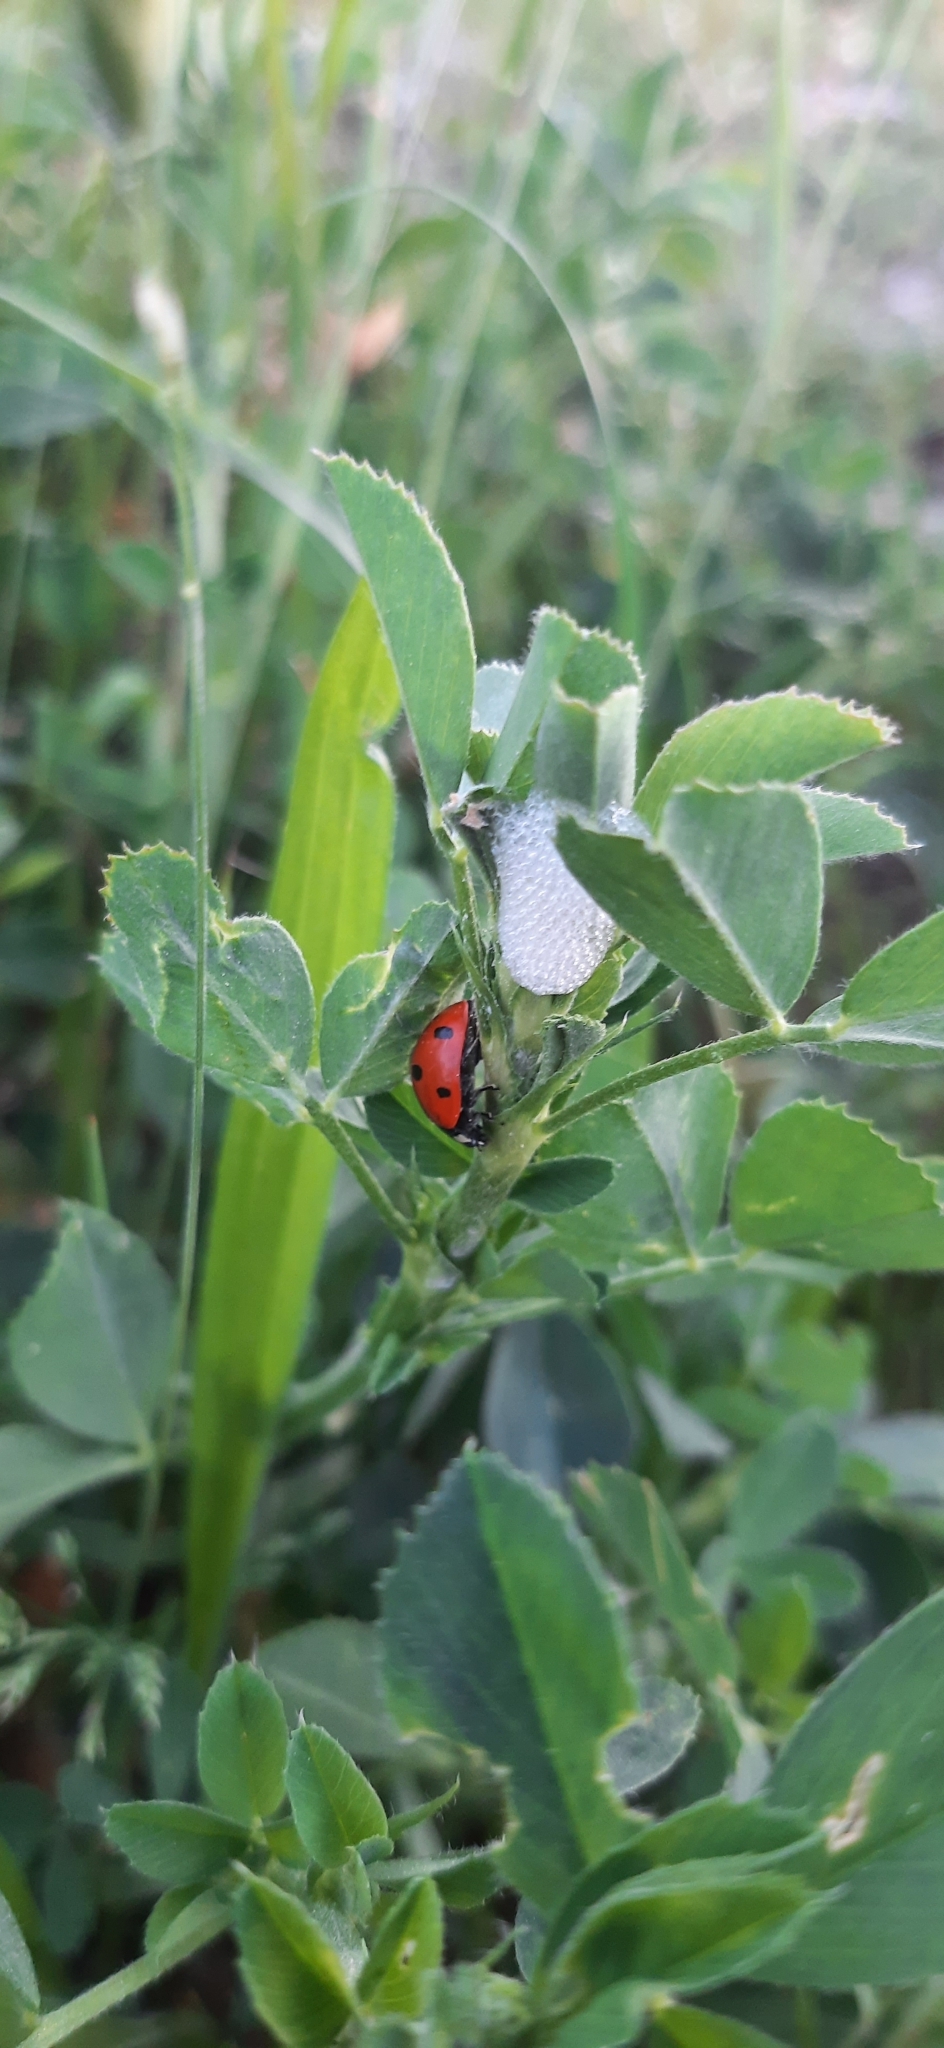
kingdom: Animalia
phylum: Arthropoda
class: Insecta
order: Coleoptera
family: Coccinellidae
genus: Coccinella
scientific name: Coccinella septempunctata
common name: Sevenspotted lady beetle
